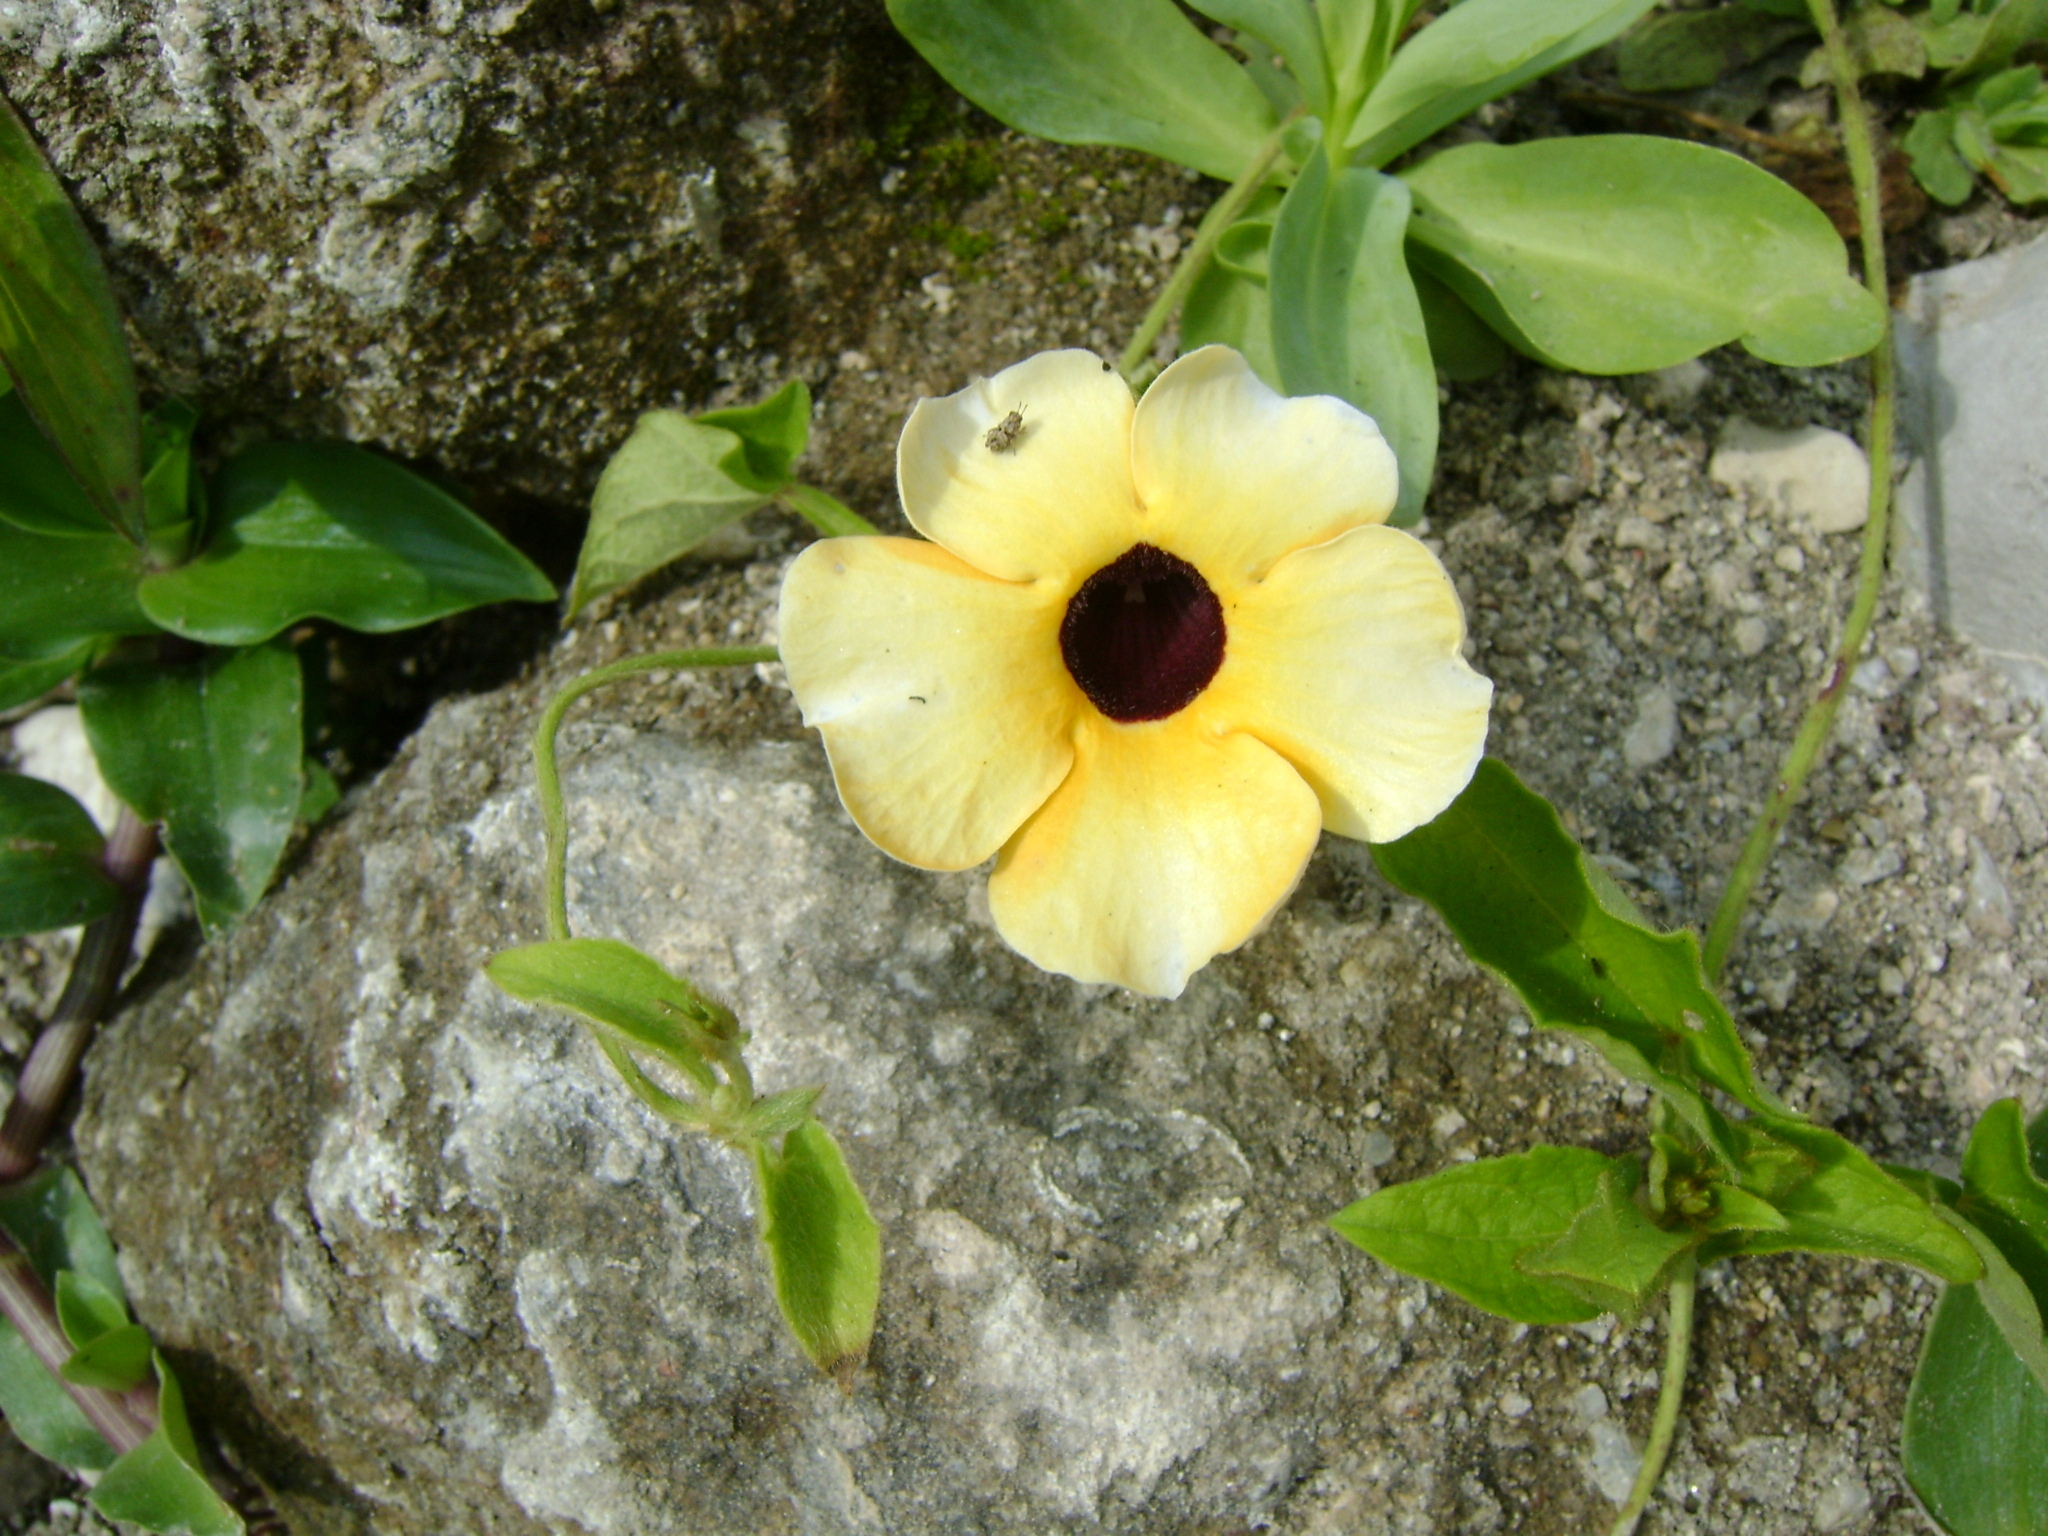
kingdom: Plantae
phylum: Tracheophyta
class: Magnoliopsida
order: Lamiales
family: Acanthaceae
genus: Thunbergia
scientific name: Thunbergia alata
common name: Blackeyed susan vine
